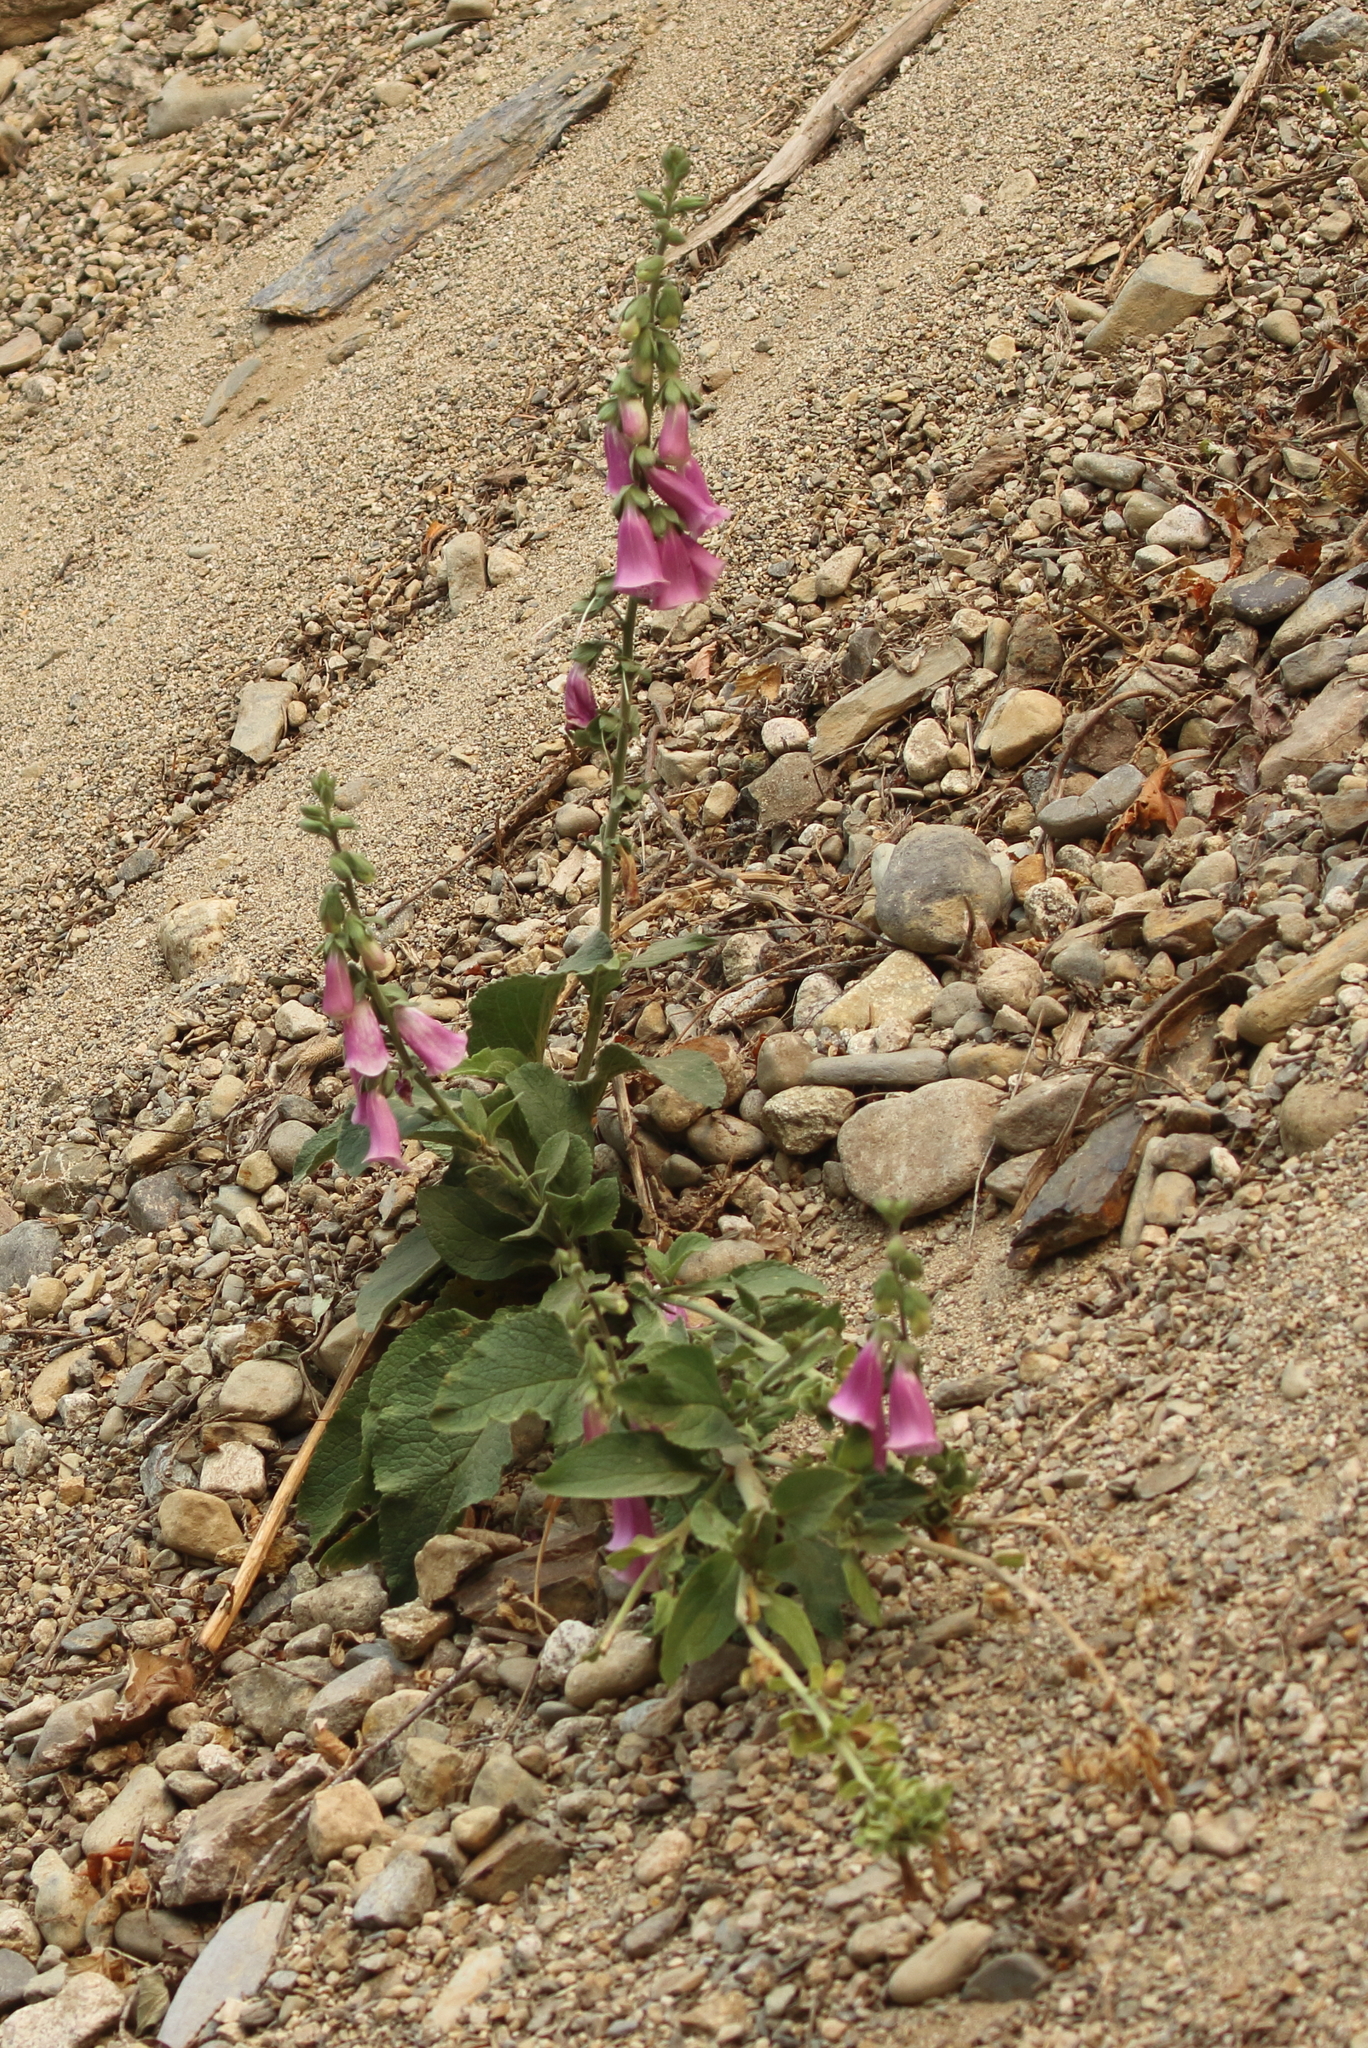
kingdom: Plantae
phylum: Tracheophyta
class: Magnoliopsida
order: Lamiales
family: Plantaginaceae
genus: Digitalis
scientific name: Digitalis purpurea
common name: Foxglove
